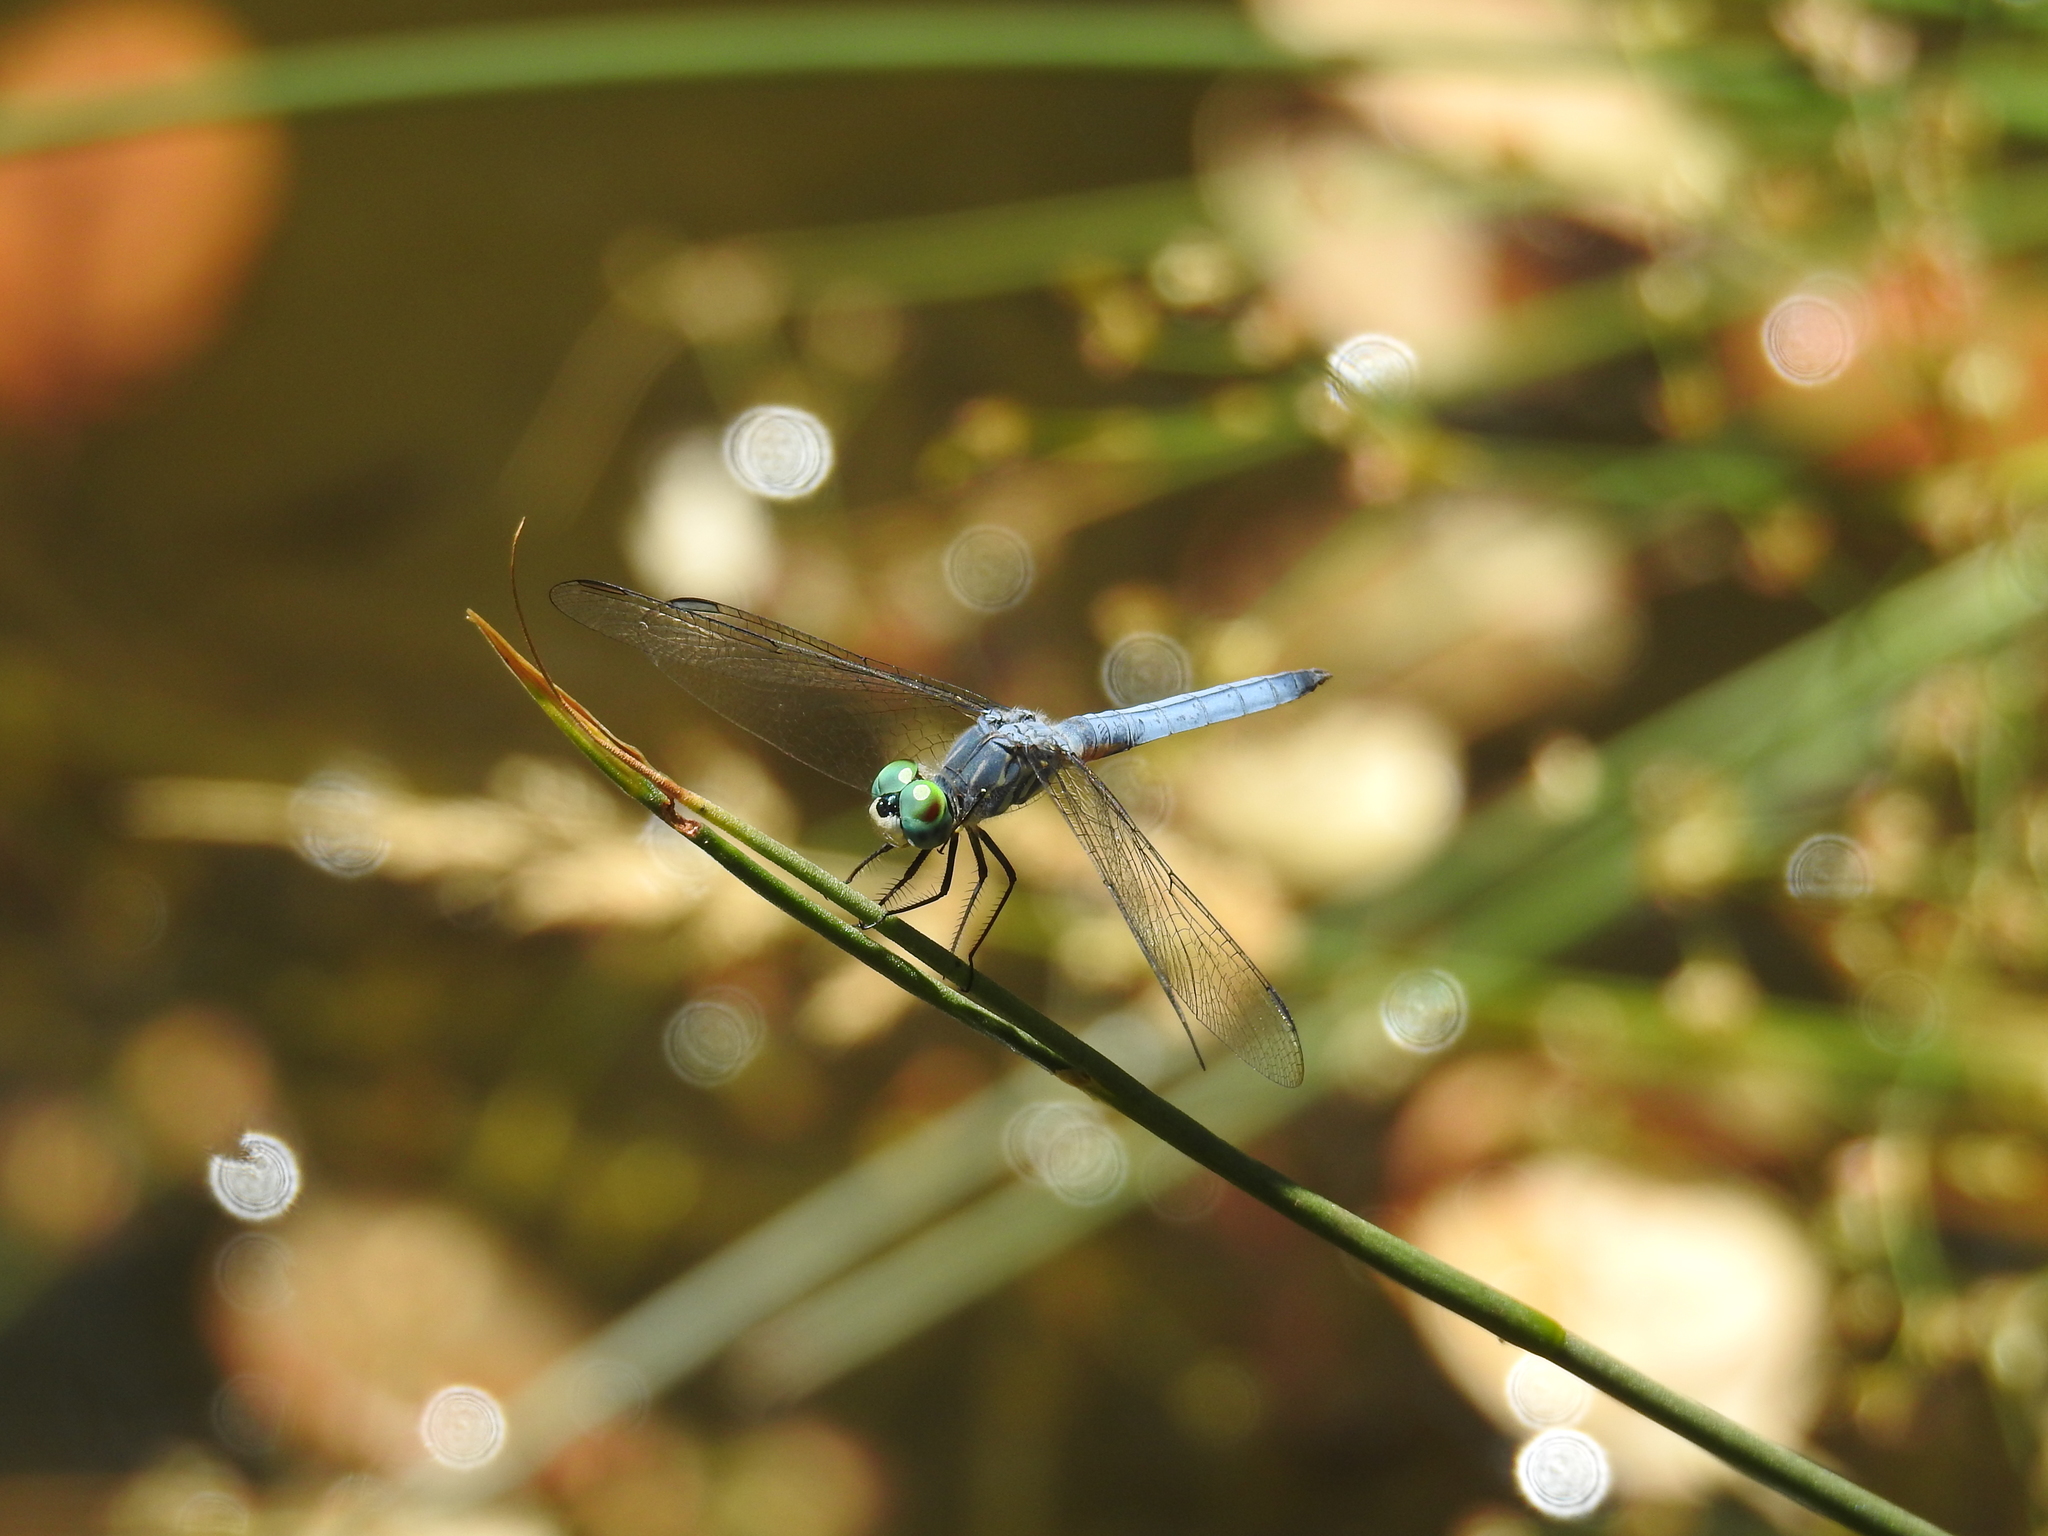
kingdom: Animalia
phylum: Arthropoda
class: Insecta
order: Odonata
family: Libellulidae
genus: Pachydiplax
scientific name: Pachydiplax longipennis
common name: Blue dasher
